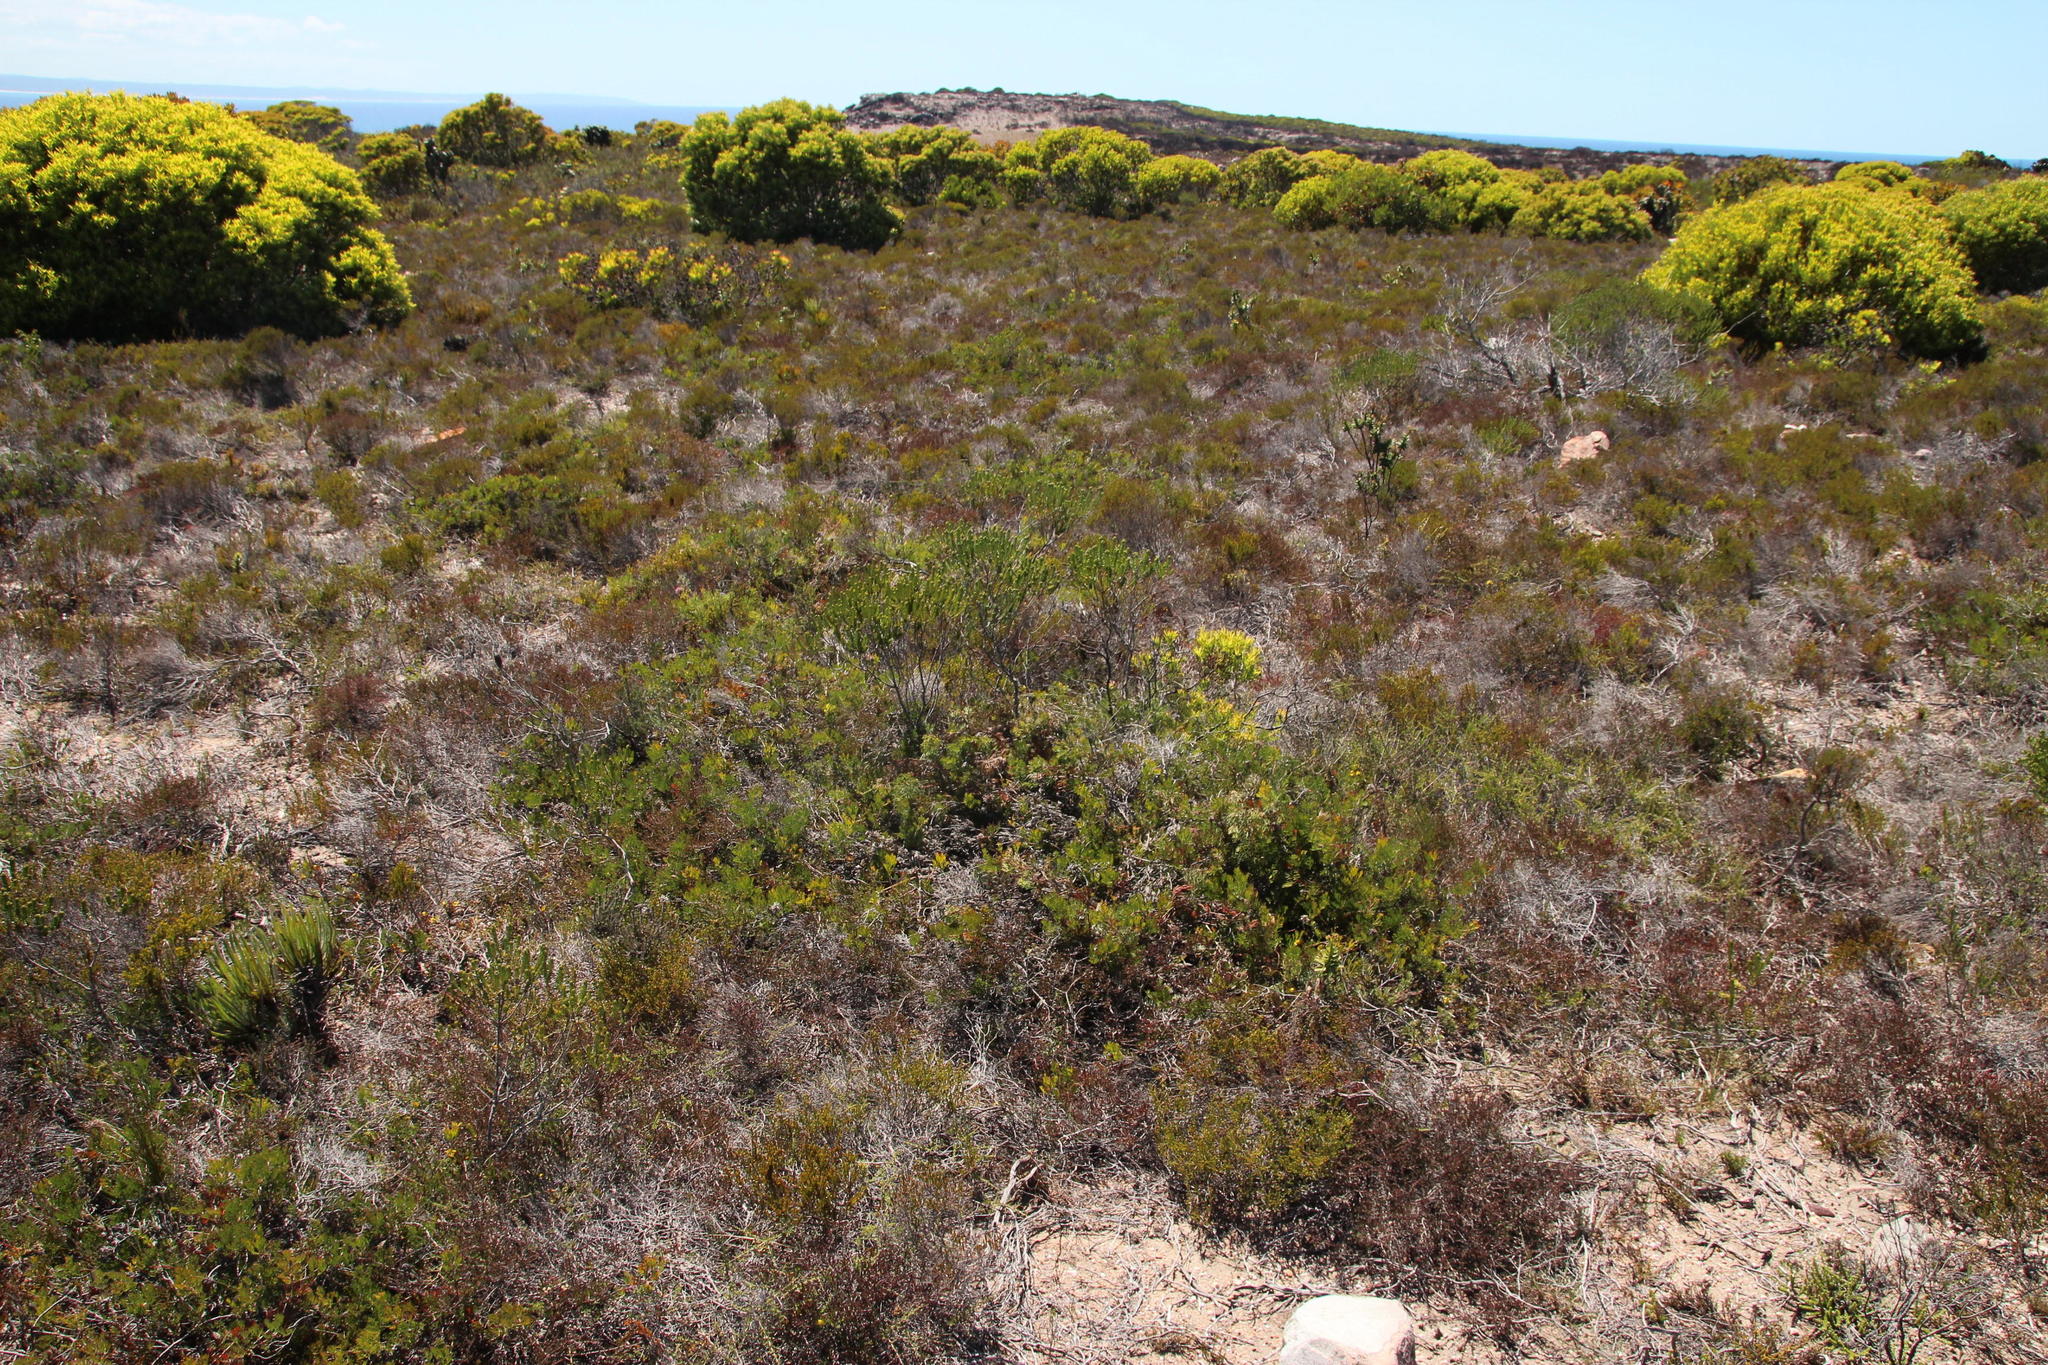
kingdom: Plantae
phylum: Tracheophyta
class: Magnoliopsida
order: Proteales
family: Proteaceae
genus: Serruria
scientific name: Serruria
